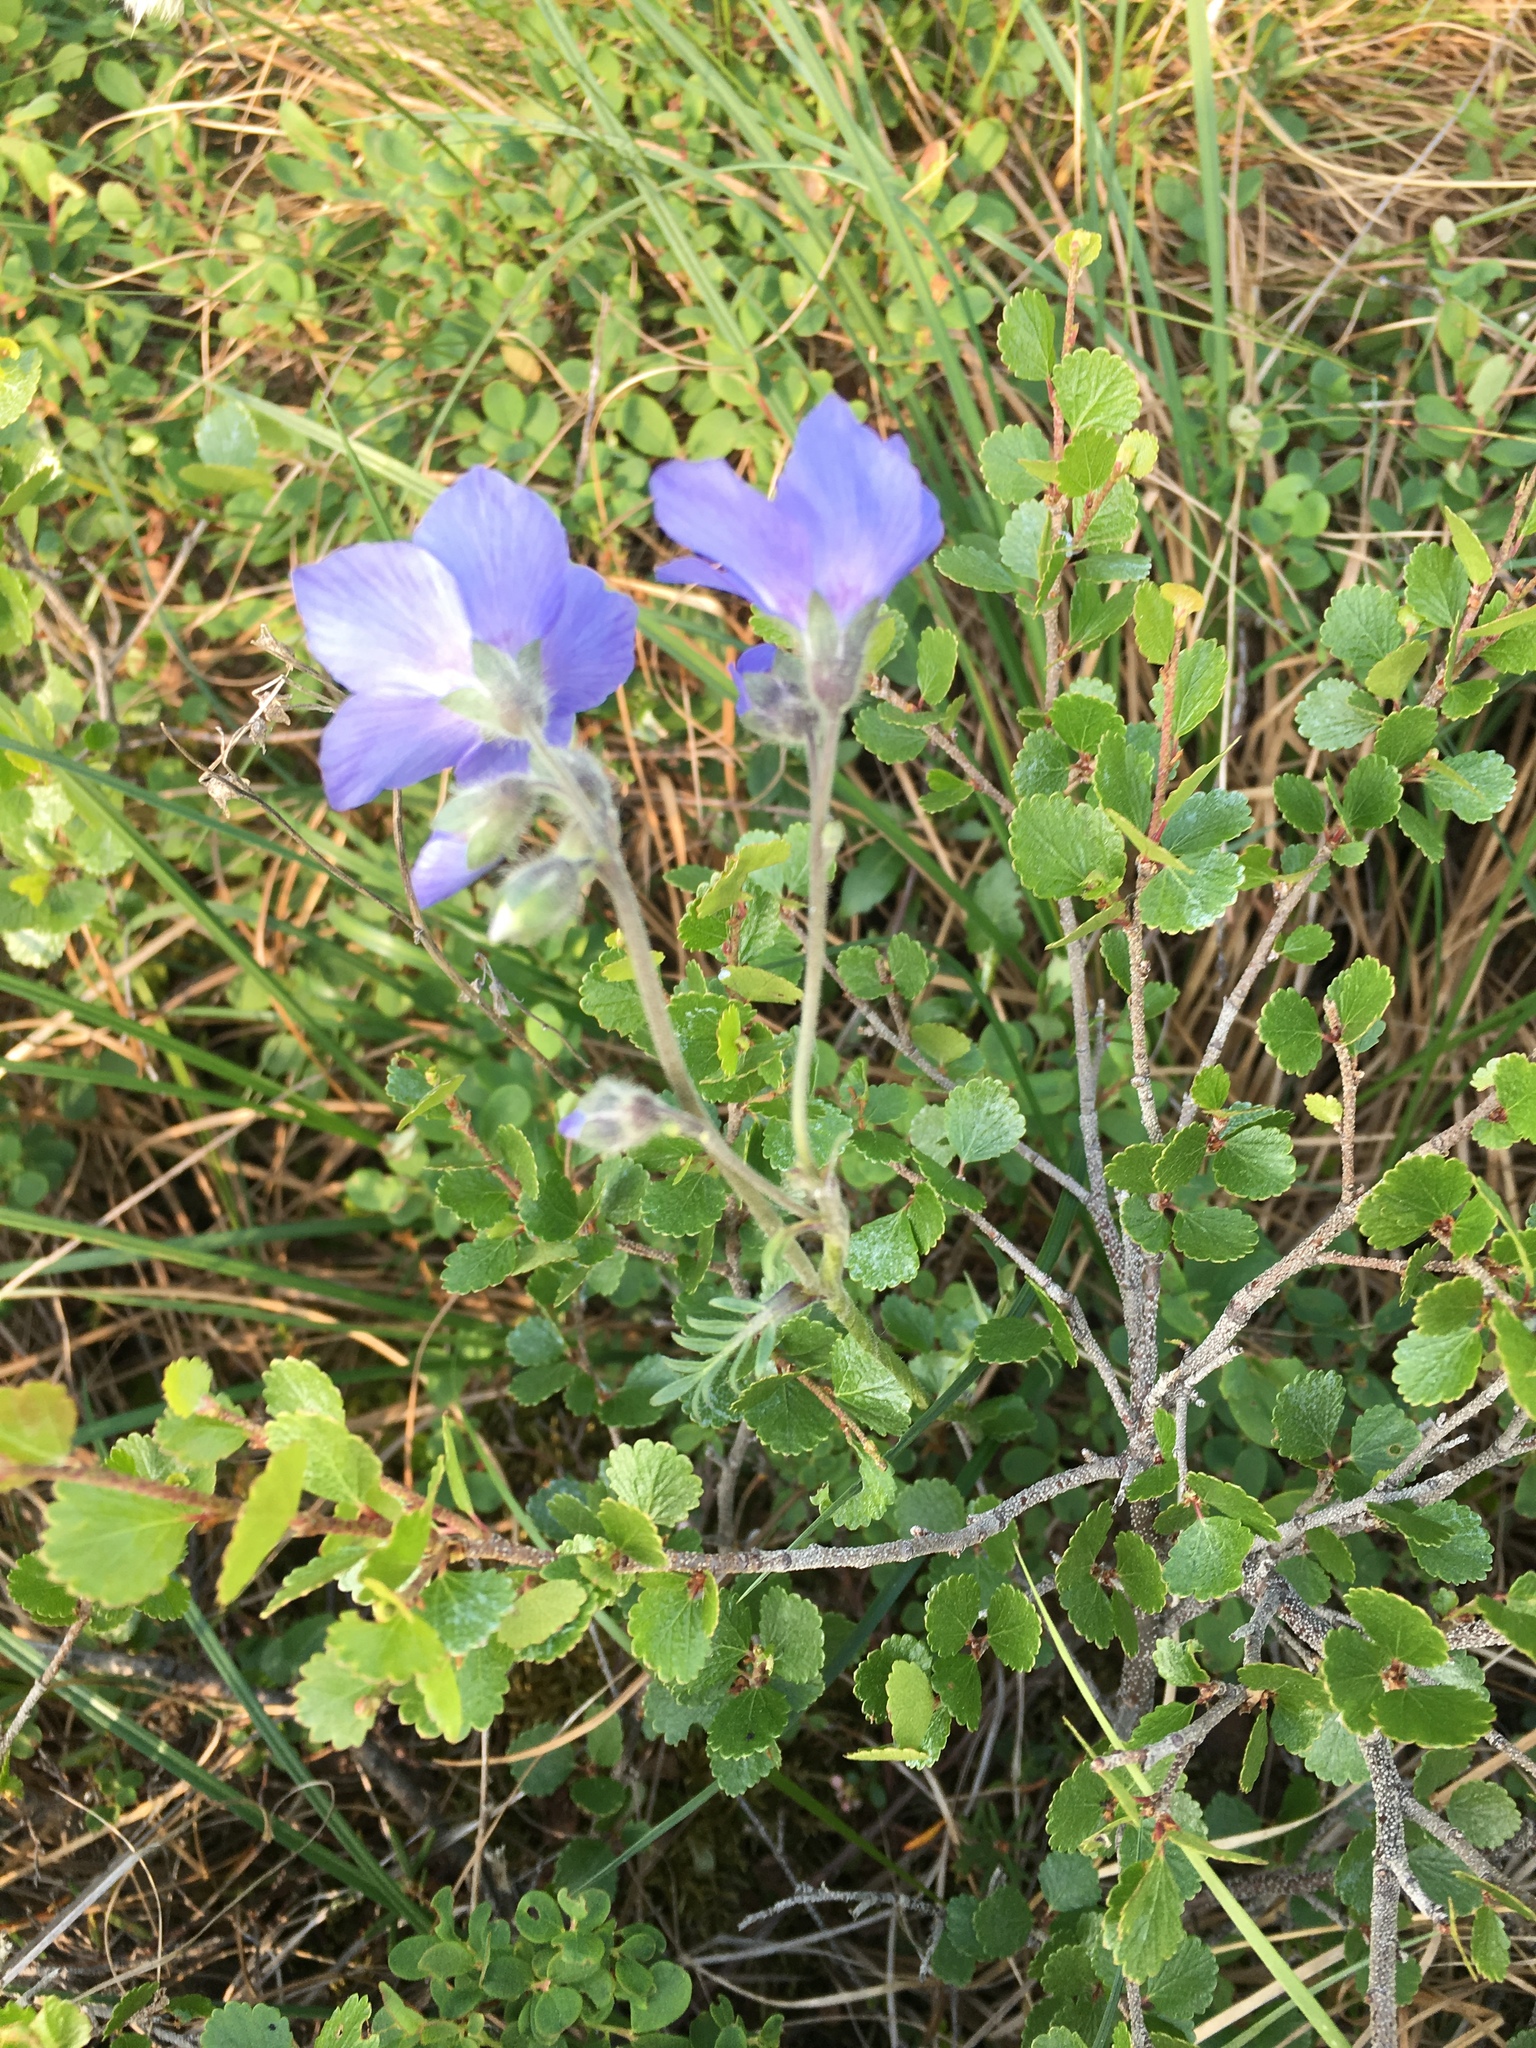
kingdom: Plantae
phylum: Tracheophyta
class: Magnoliopsida
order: Ericales
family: Polemoniaceae
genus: Polemonium
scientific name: Polemonium acutiflorum
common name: Tall jacob's-ladder
